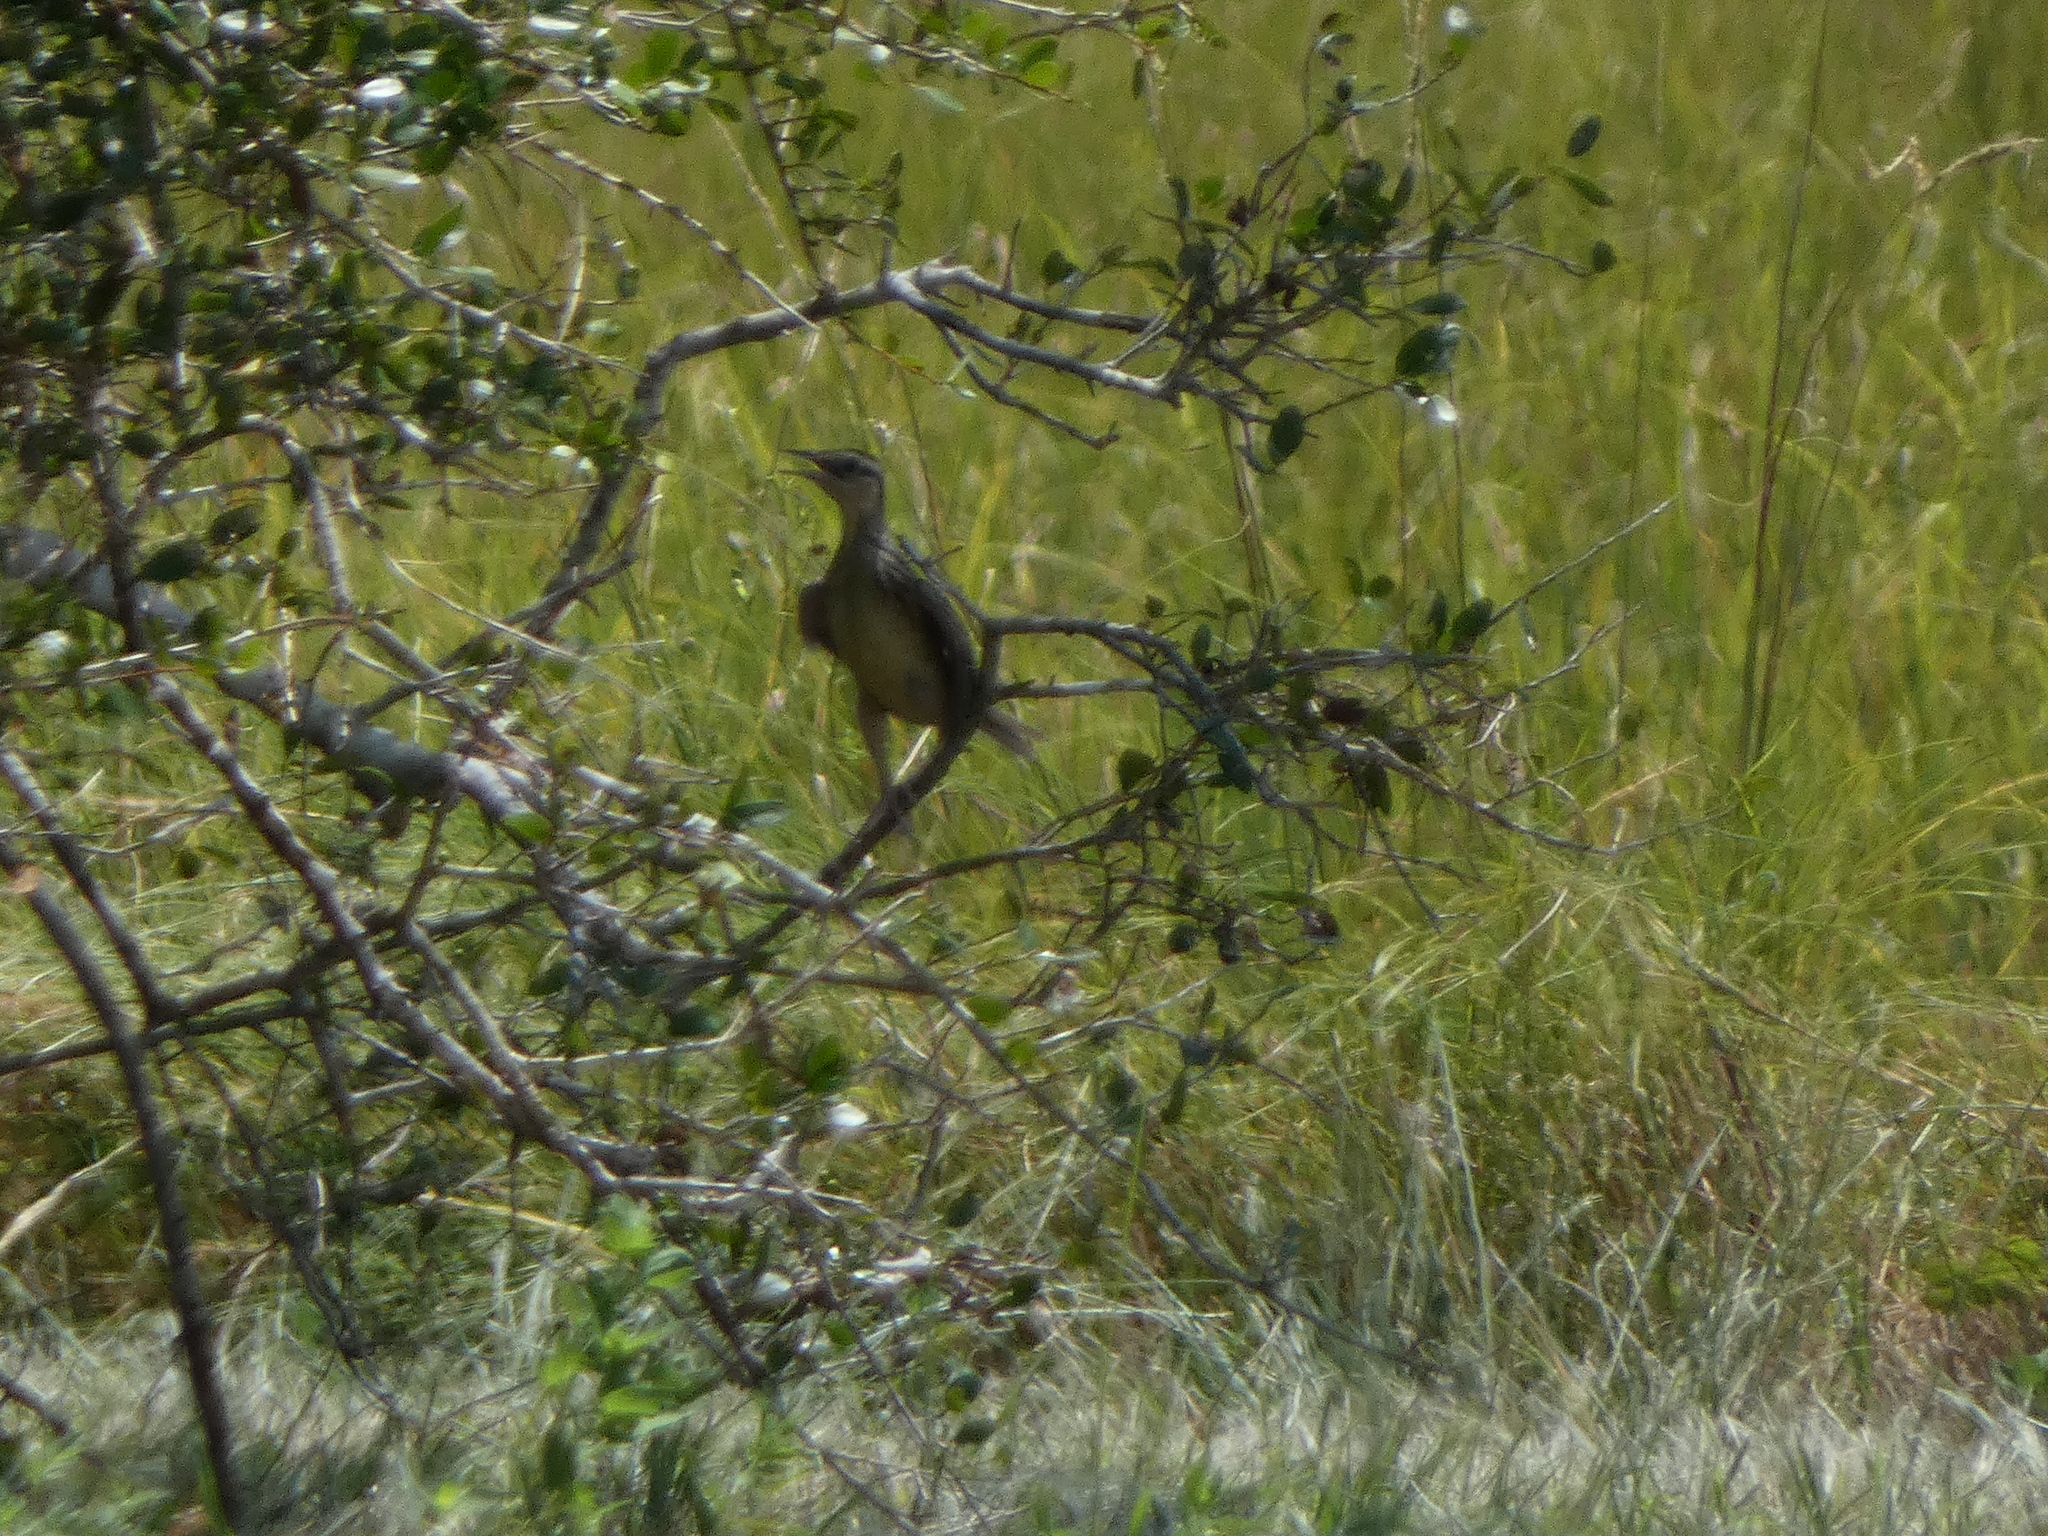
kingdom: Animalia
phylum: Chordata
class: Aves
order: Passeriformes
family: Icteridae
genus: Sturnella
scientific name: Sturnella magna
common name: Eastern meadowlark
